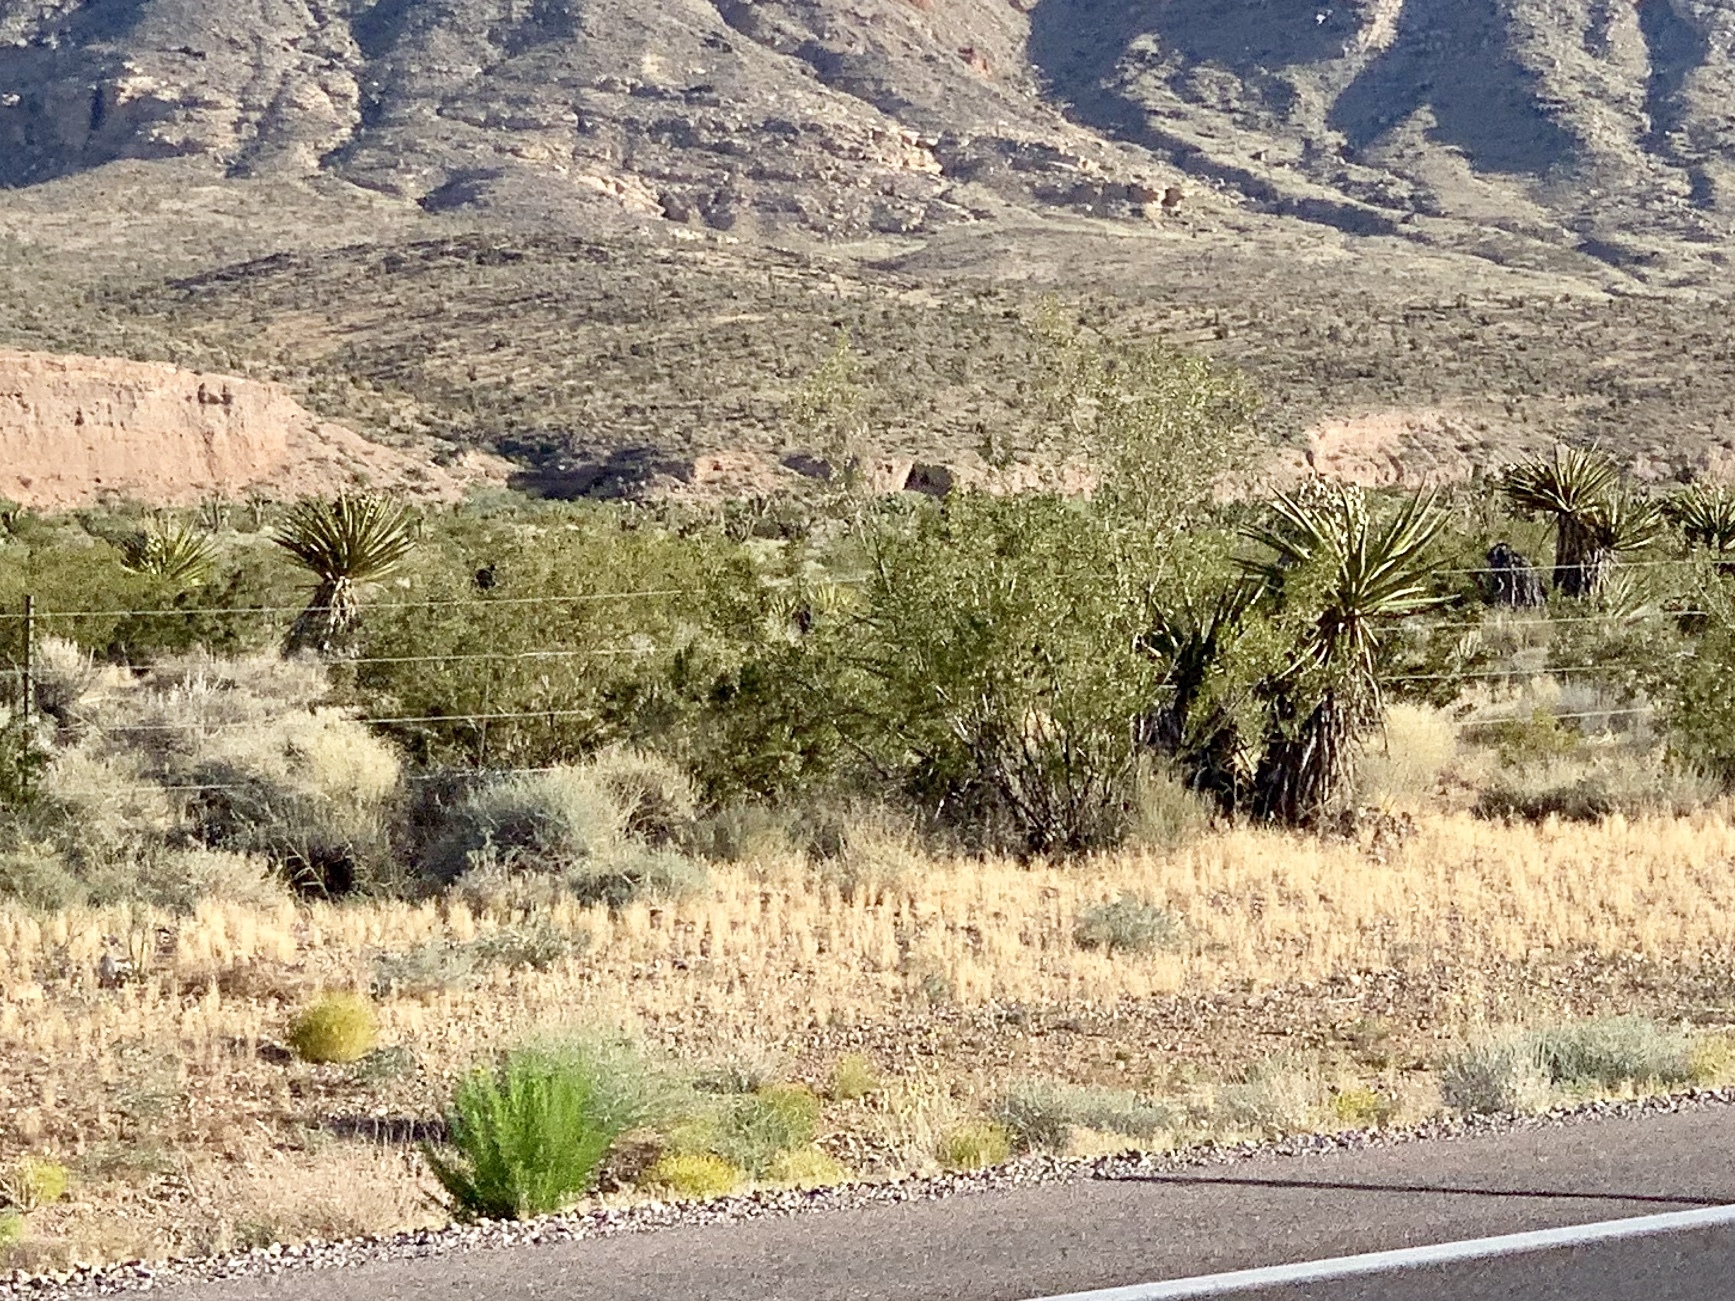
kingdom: Plantae
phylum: Tracheophyta
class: Magnoliopsida
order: Zygophyllales
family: Zygophyllaceae
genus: Larrea
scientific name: Larrea tridentata
